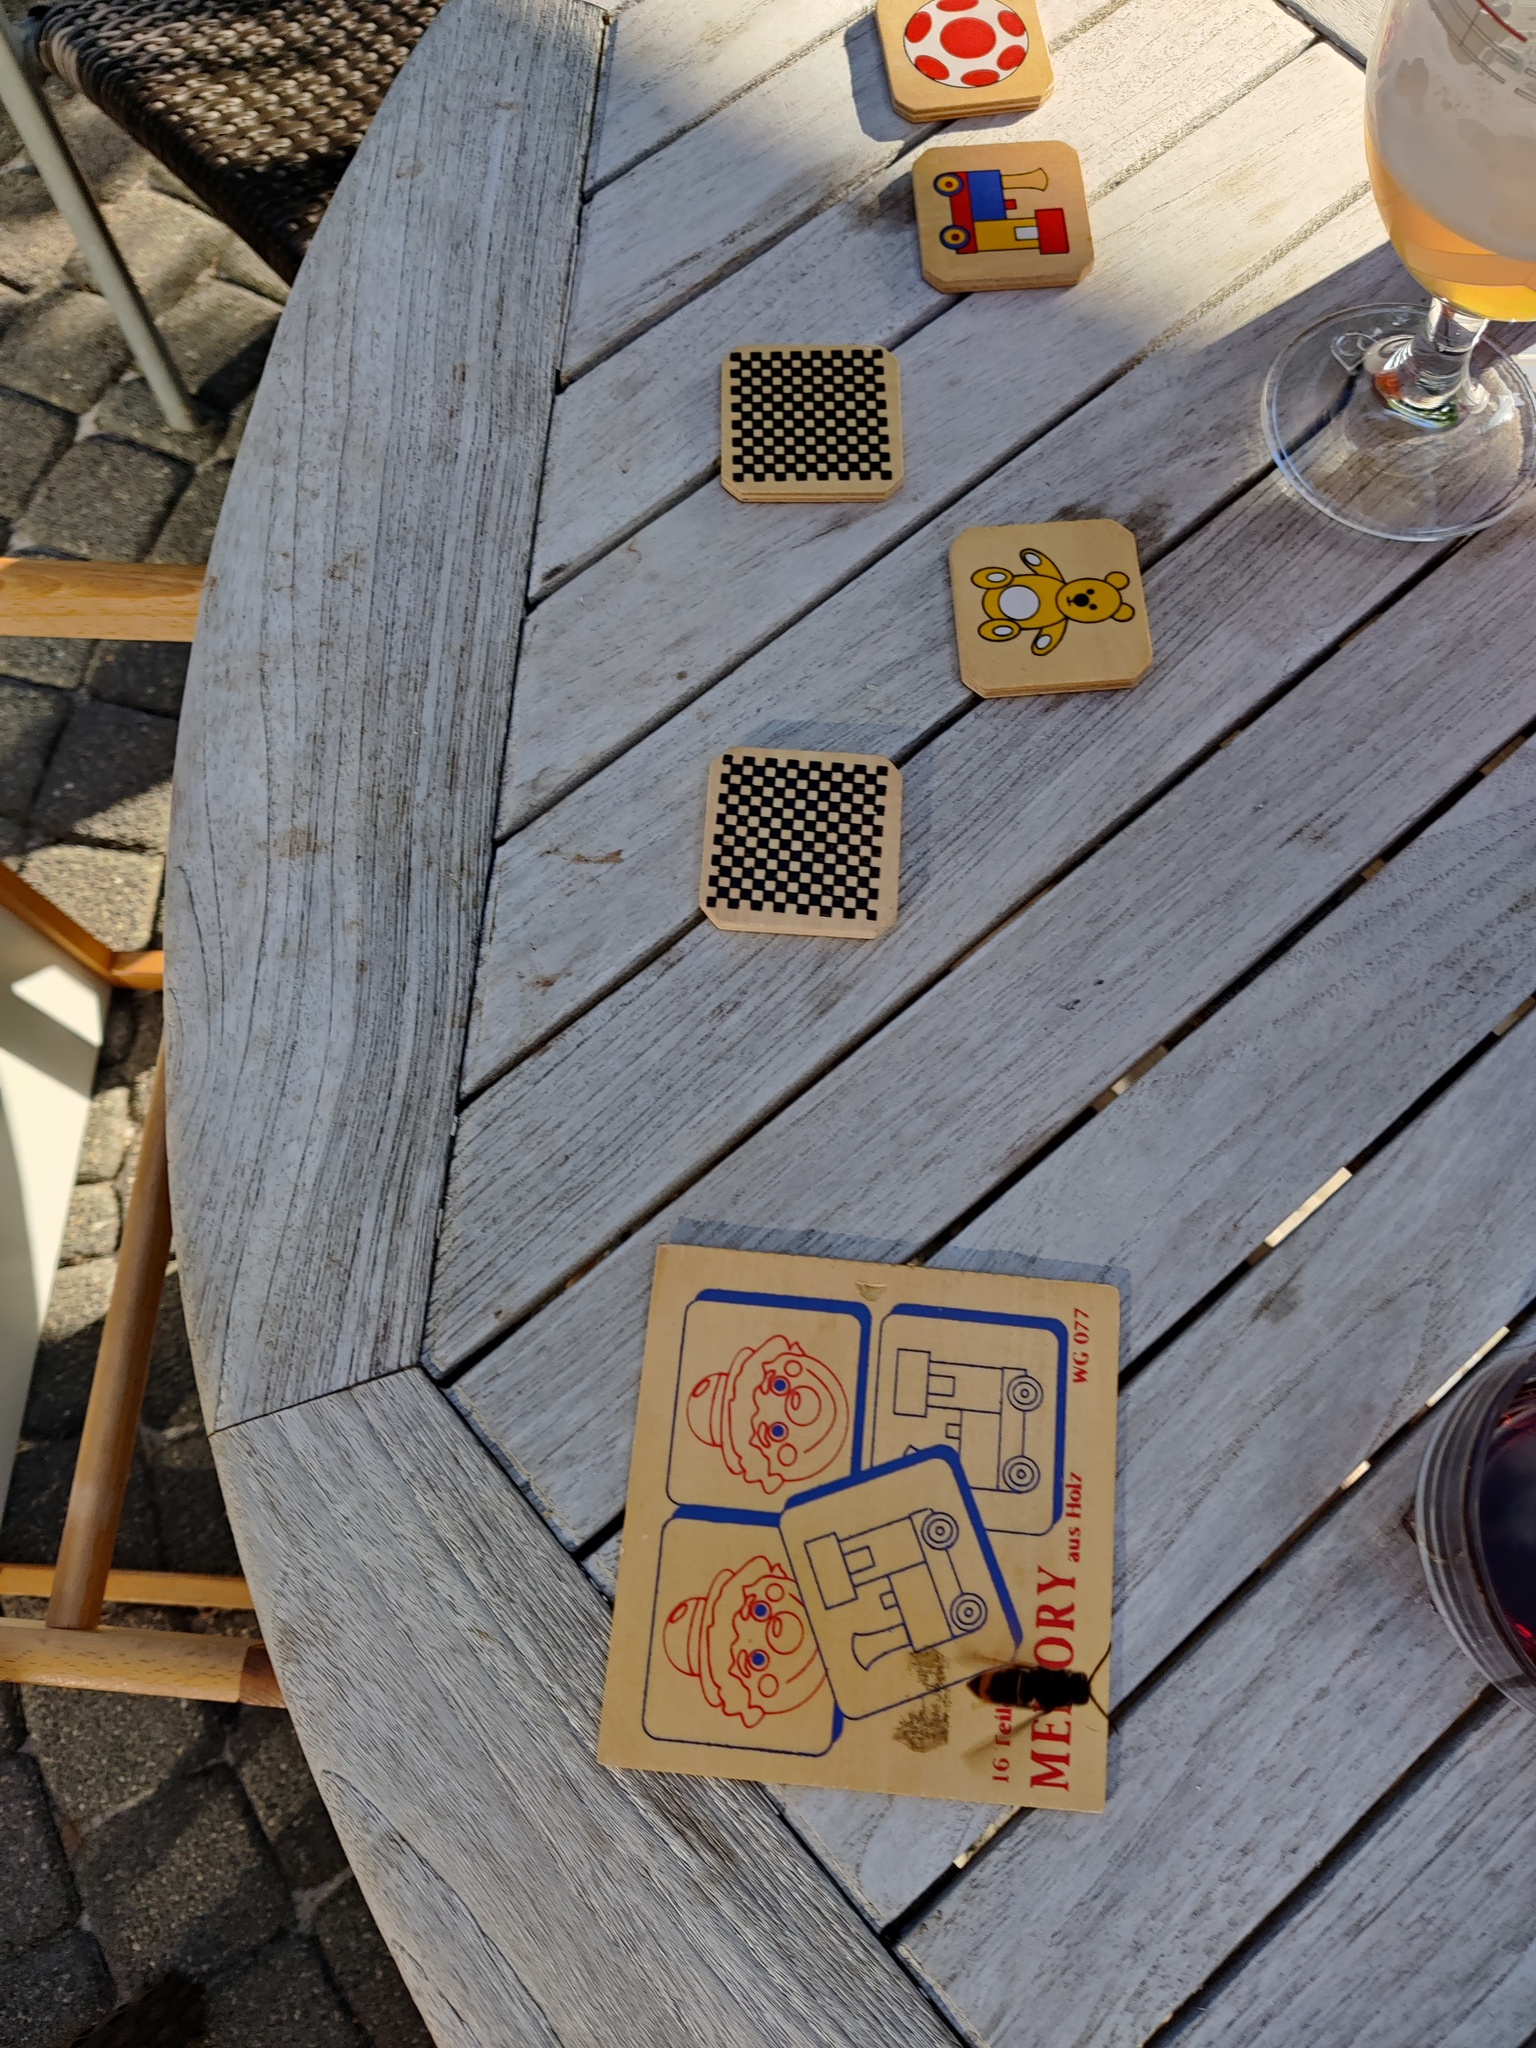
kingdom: Animalia
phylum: Arthropoda
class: Insecta
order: Hymenoptera
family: Vespidae
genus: Vespa
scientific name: Vespa velutina
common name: Asian hornet
